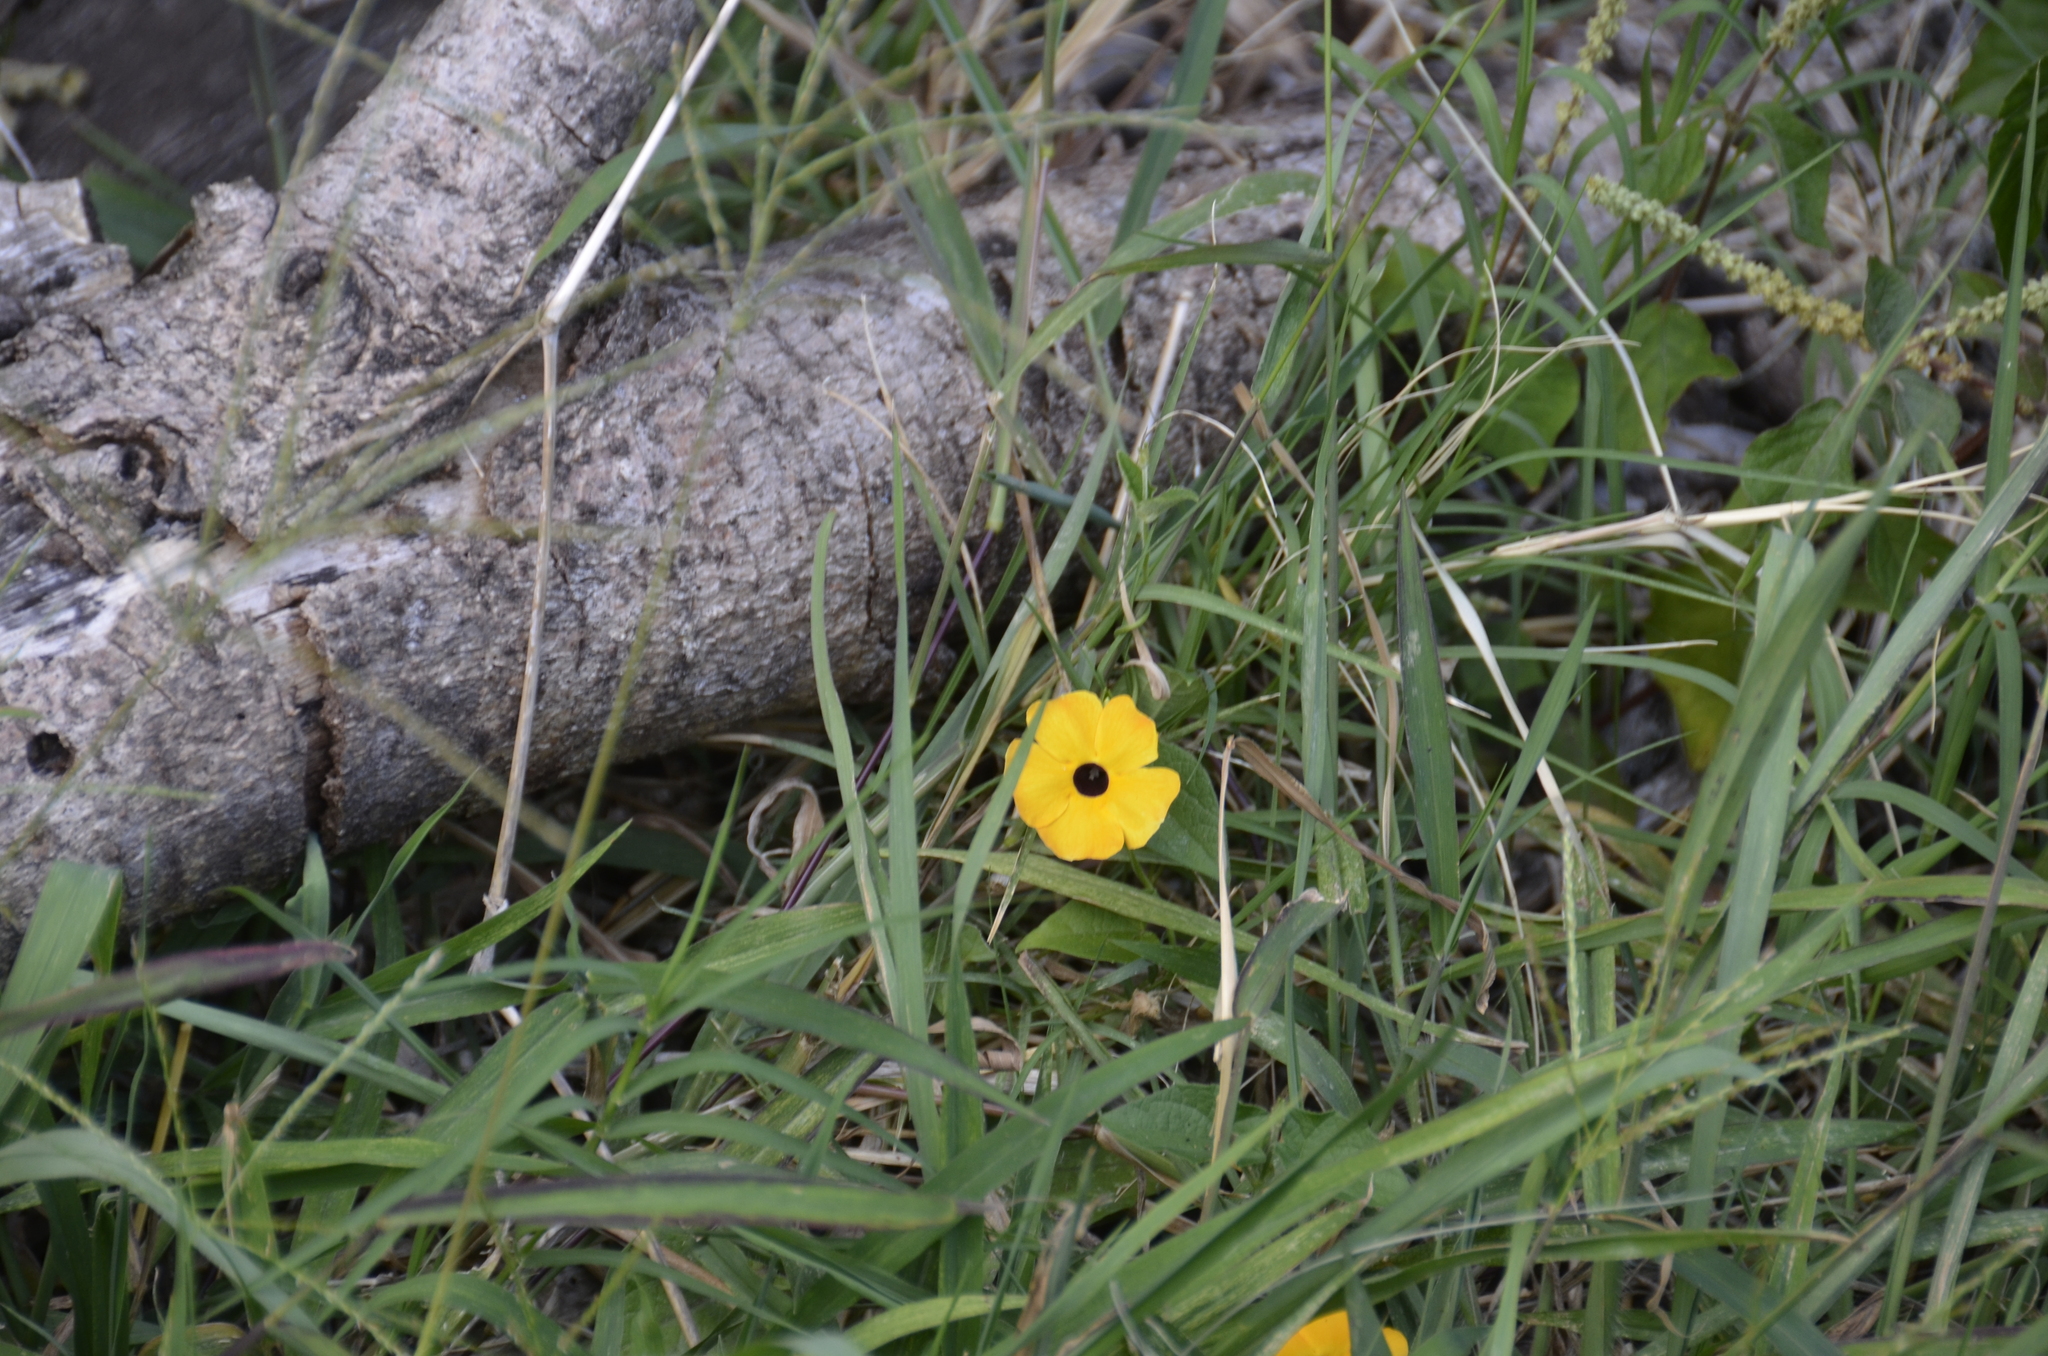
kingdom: Plantae
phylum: Tracheophyta
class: Magnoliopsida
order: Lamiales
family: Acanthaceae
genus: Thunbergia
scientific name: Thunbergia alata
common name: Blackeyed susan vine
